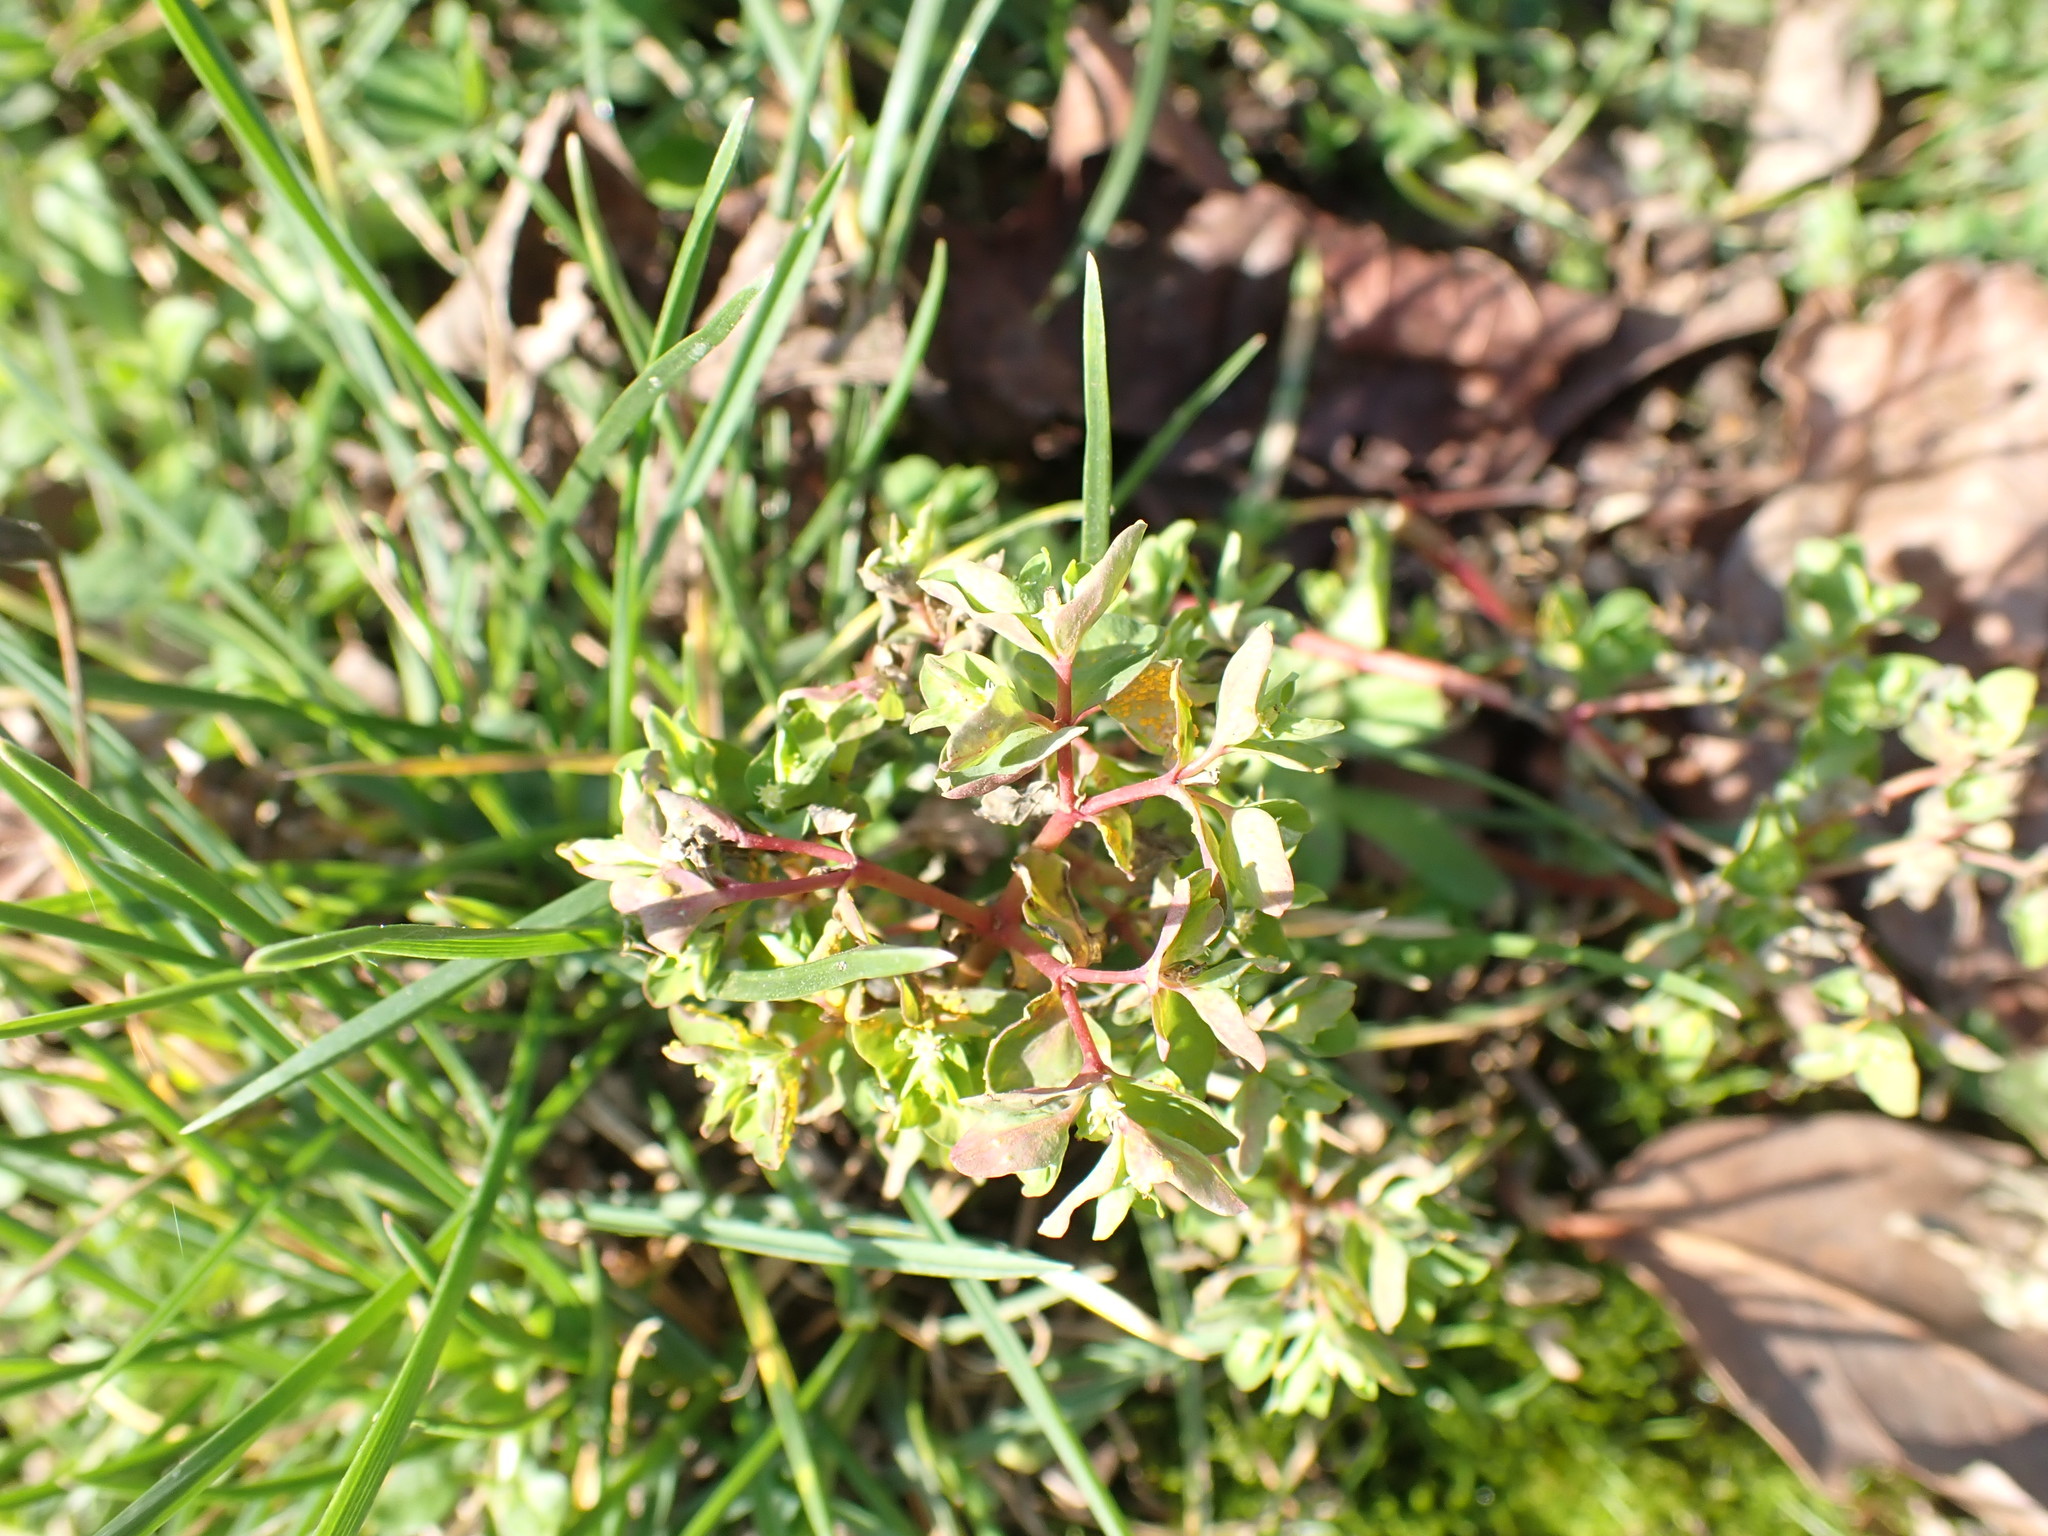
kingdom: Plantae
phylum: Tracheophyta
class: Magnoliopsida
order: Malpighiales
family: Euphorbiaceae
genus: Euphorbia
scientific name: Euphorbia peplus
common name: Petty spurge
